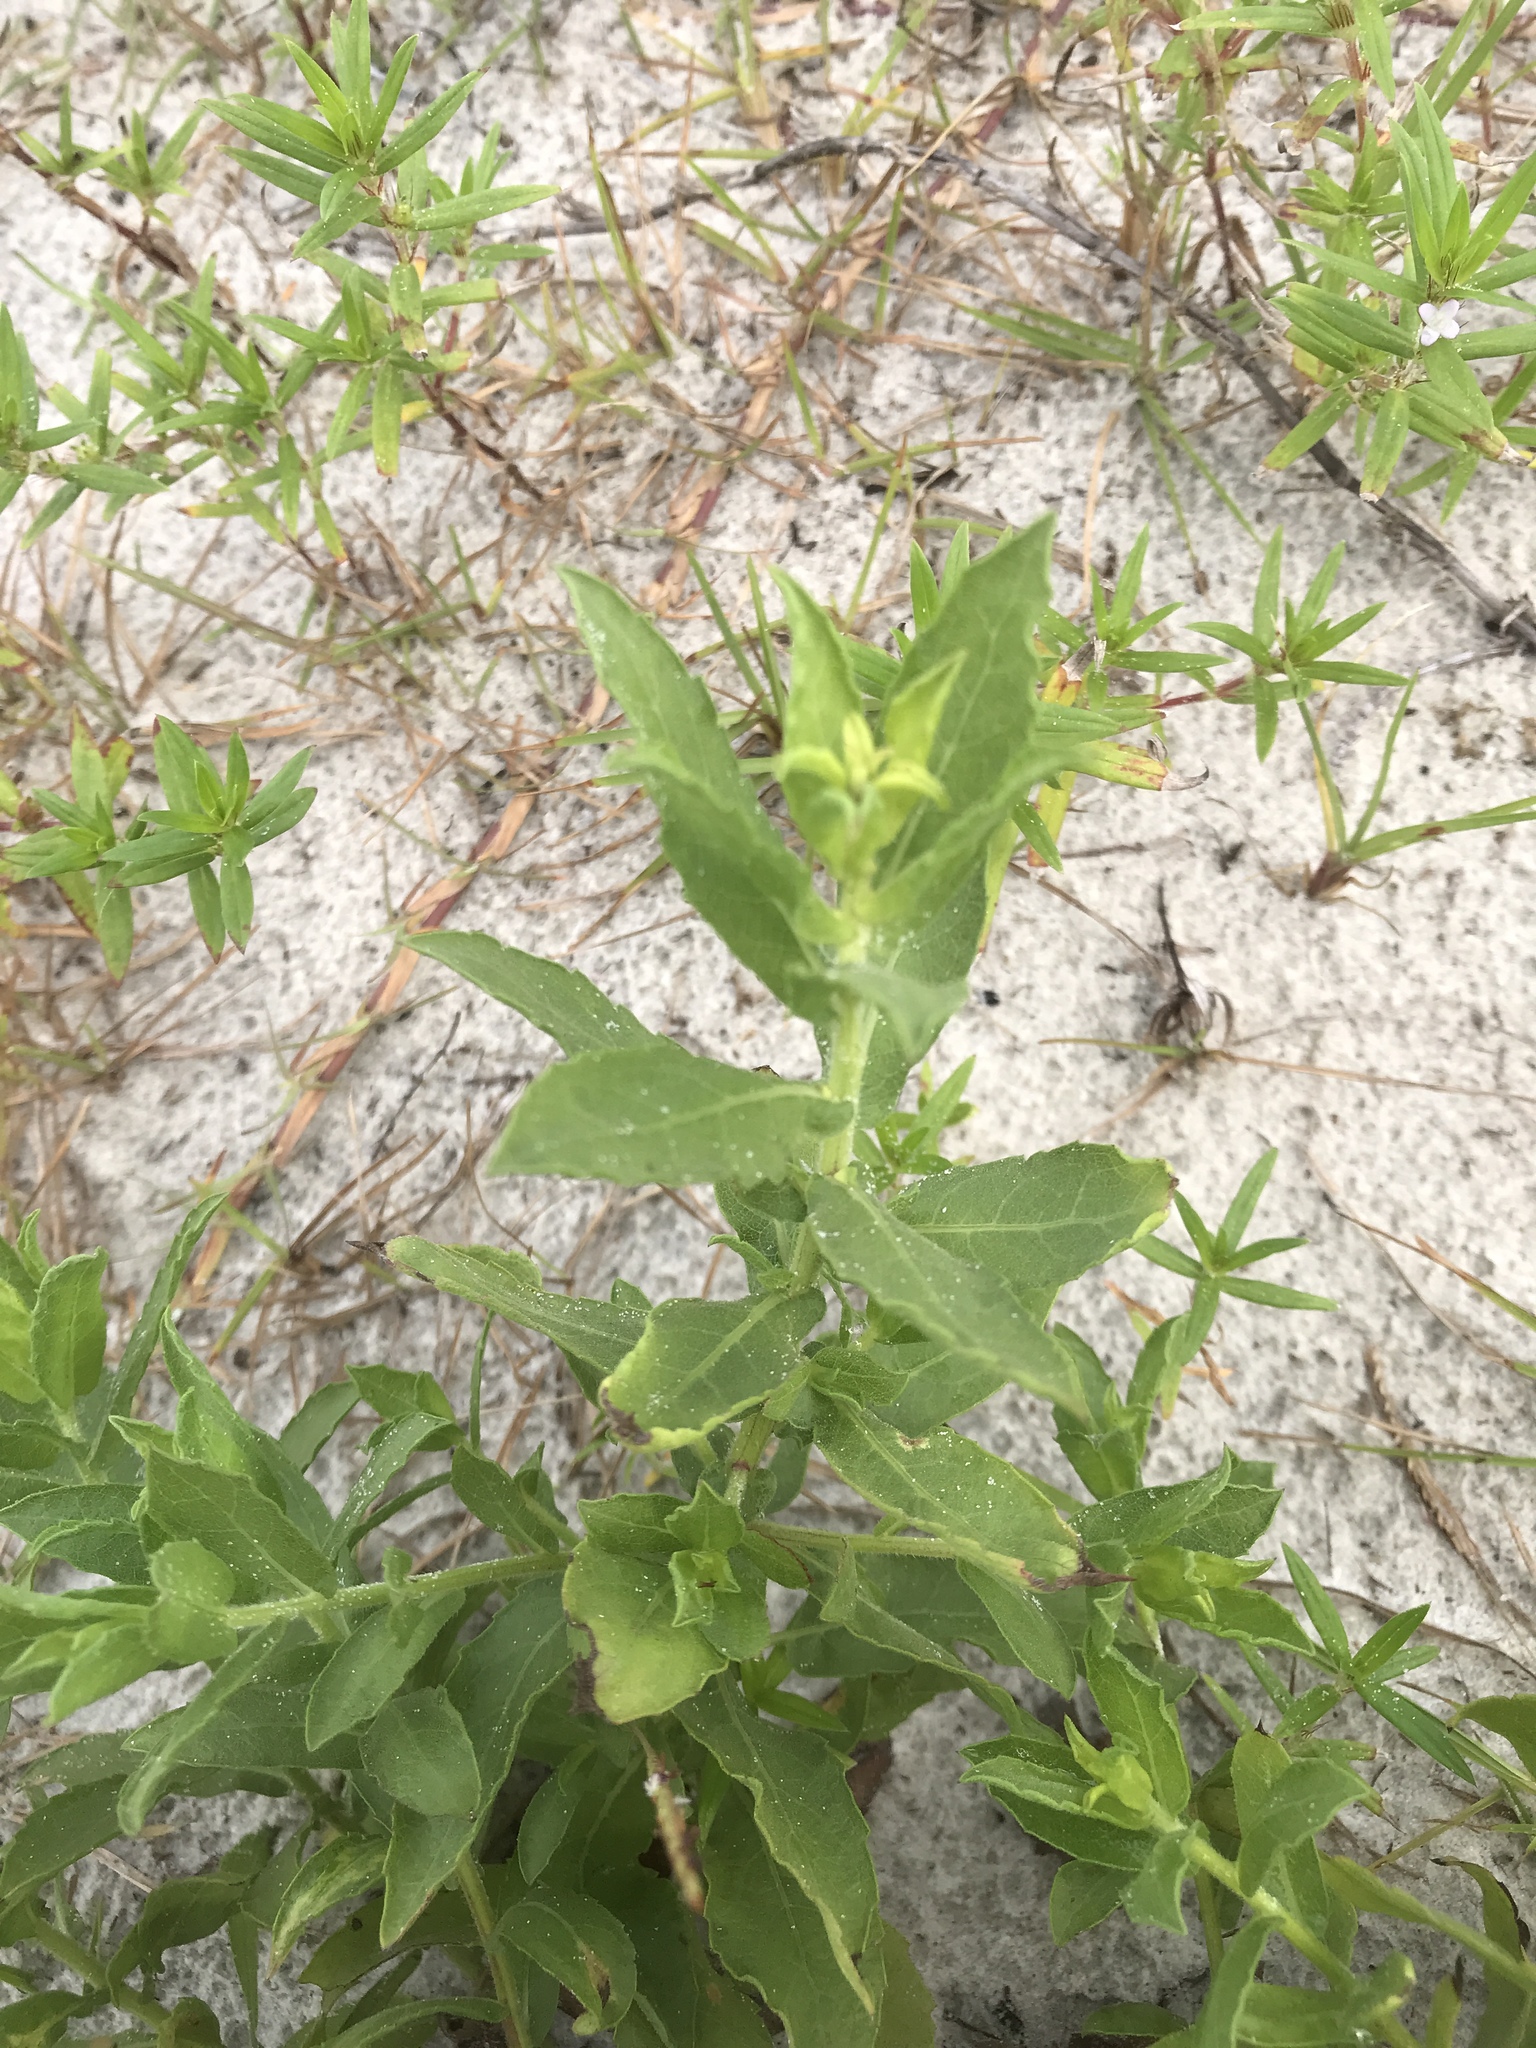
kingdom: Plantae
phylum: Tracheophyta
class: Magnoliopsida
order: Asterales
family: Asteraceae
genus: Heterotheca
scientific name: Heterotheca subaxillaris
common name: Camphorweed
